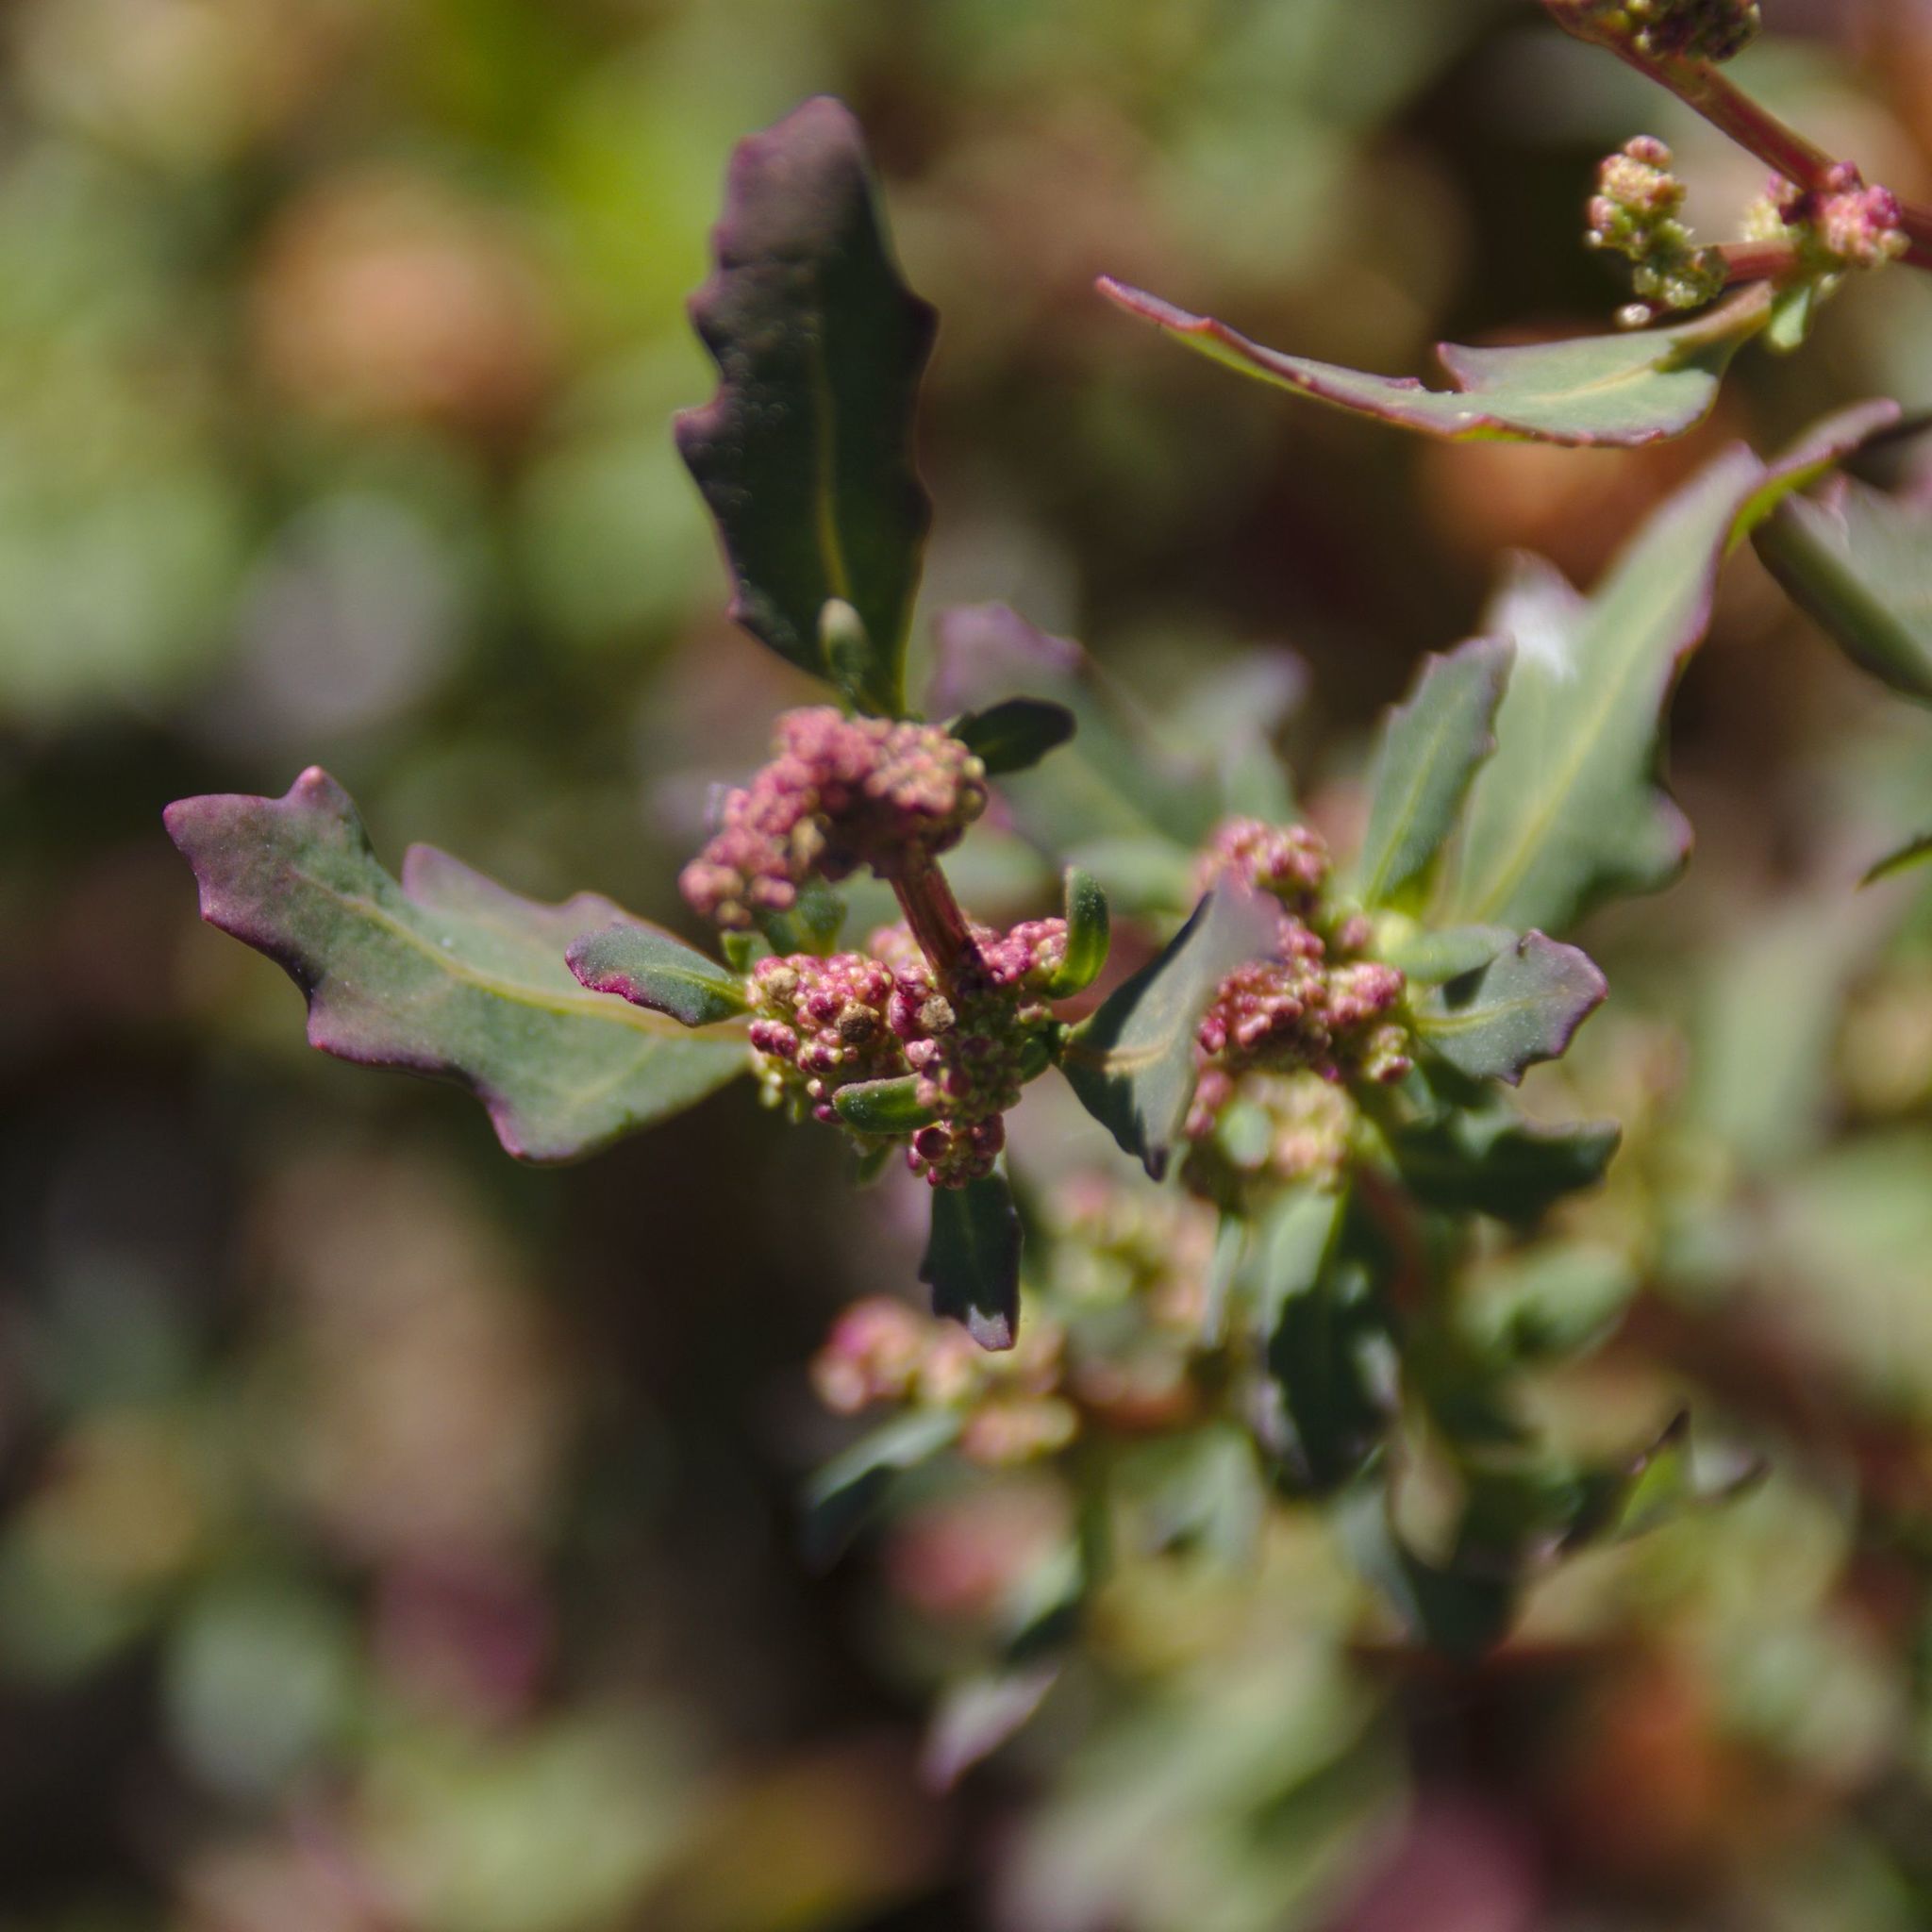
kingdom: Plantae
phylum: Tracheophyta
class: Magnoliopsida
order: Caryophyllales
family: Amaranthaceae
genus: Oxybasis
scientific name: Oxybasis glauca
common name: Glaucous goosefoot
